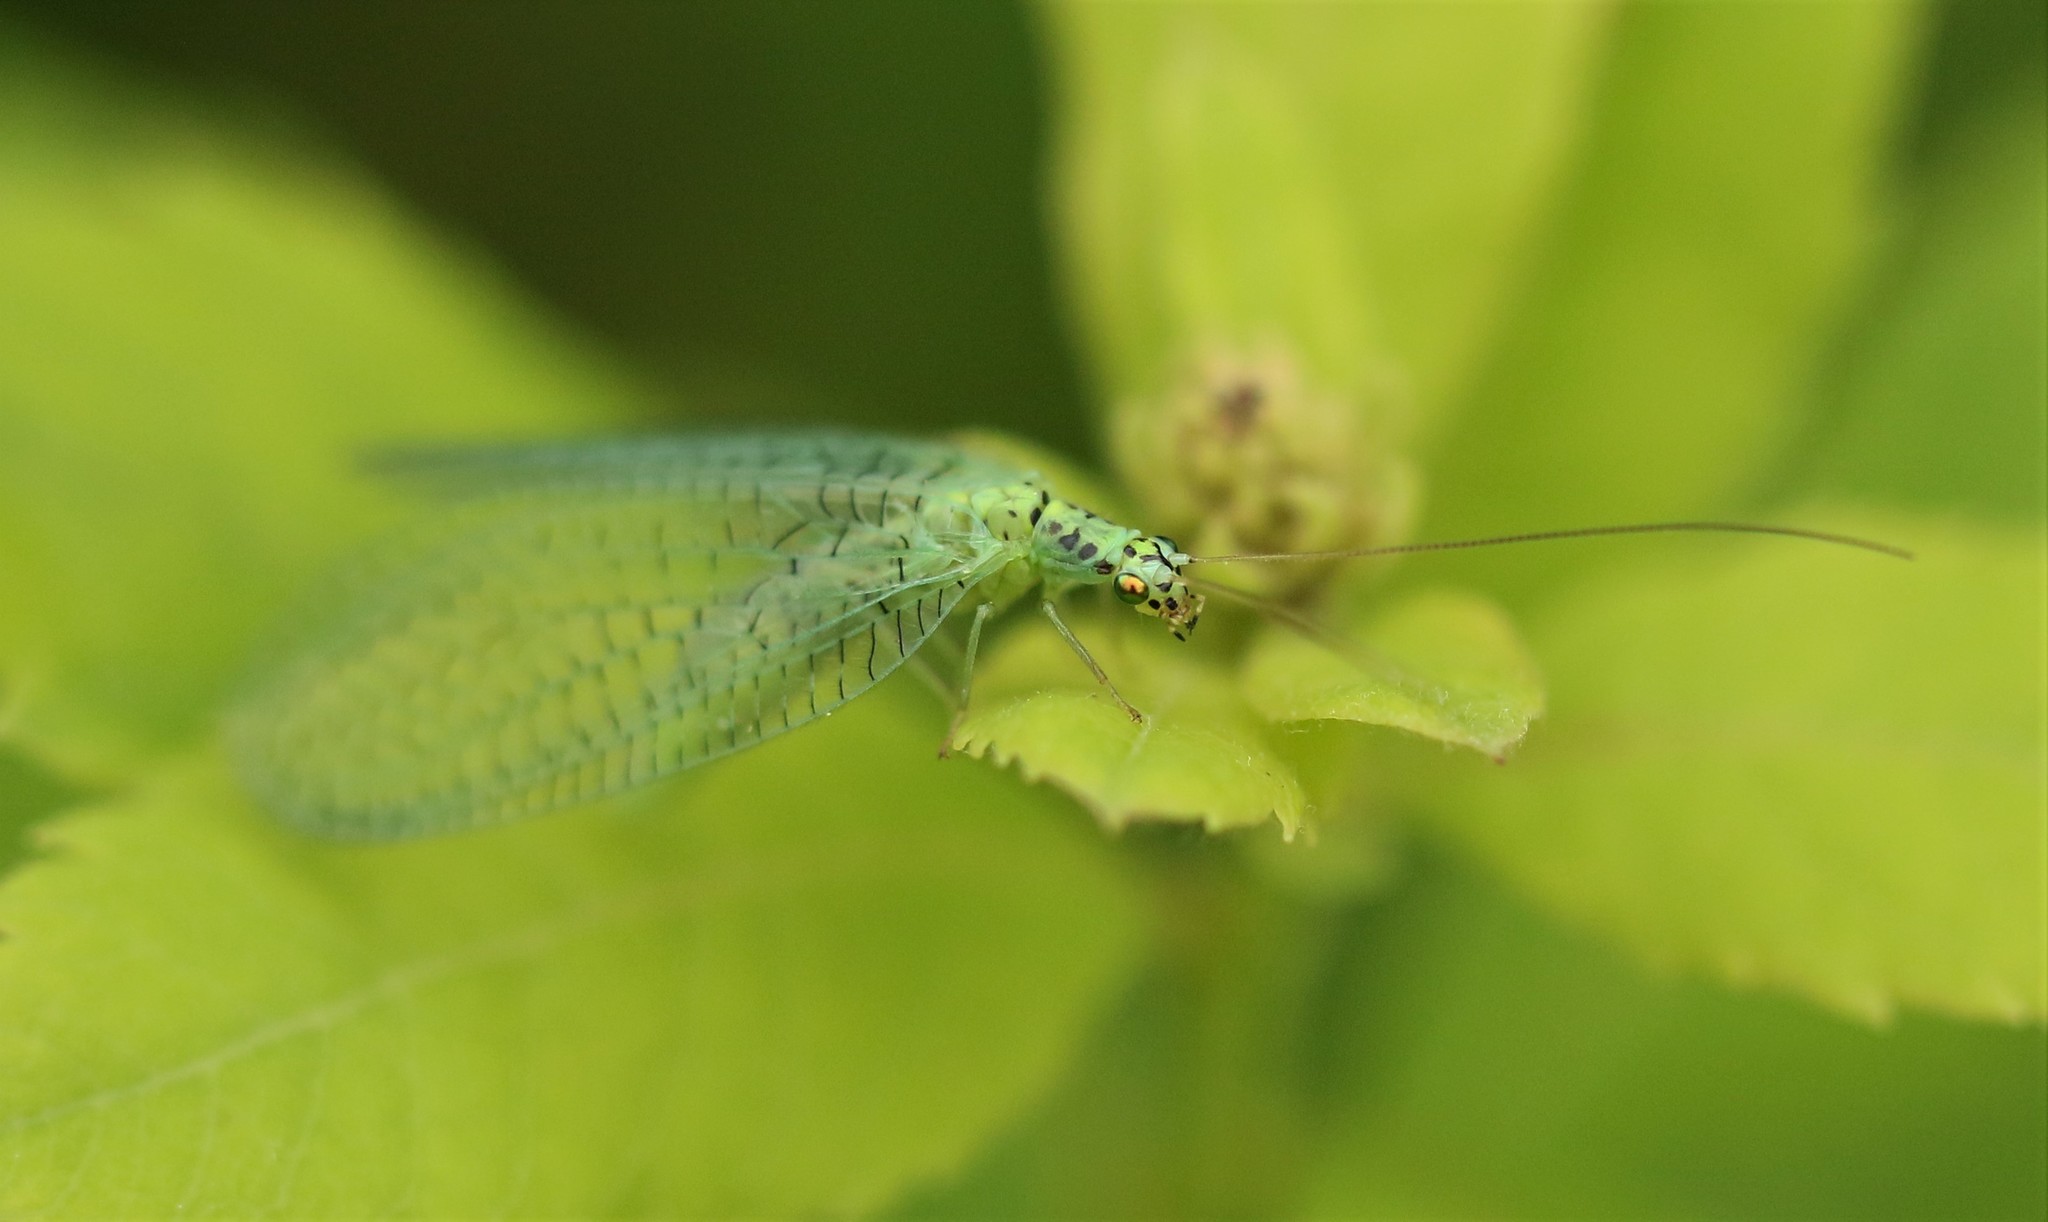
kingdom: Animalia
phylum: Arthropoda
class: Insecta
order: Neuroptera
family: Chrysopidae
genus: Chrysopa
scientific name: Chrysopa chi
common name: X-marked green lacewing
